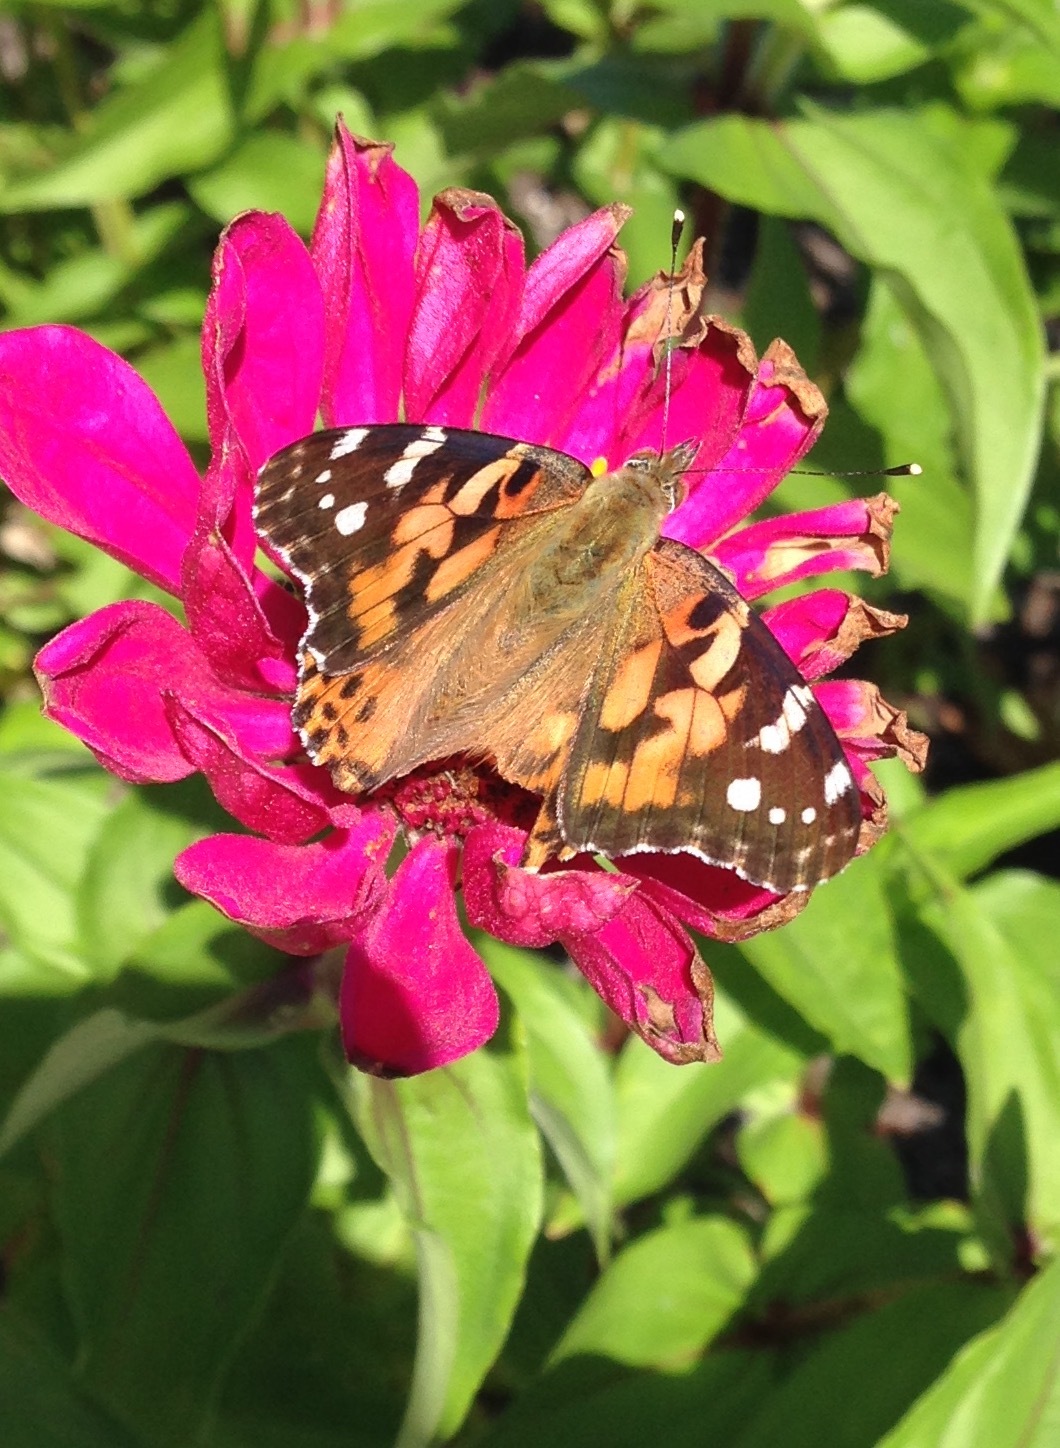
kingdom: Animalia
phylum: Arthropoda
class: Insecta
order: Lepidoptera
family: Nymphalidae
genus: Vanessa
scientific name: Vanessa cardui
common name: Painted lady
